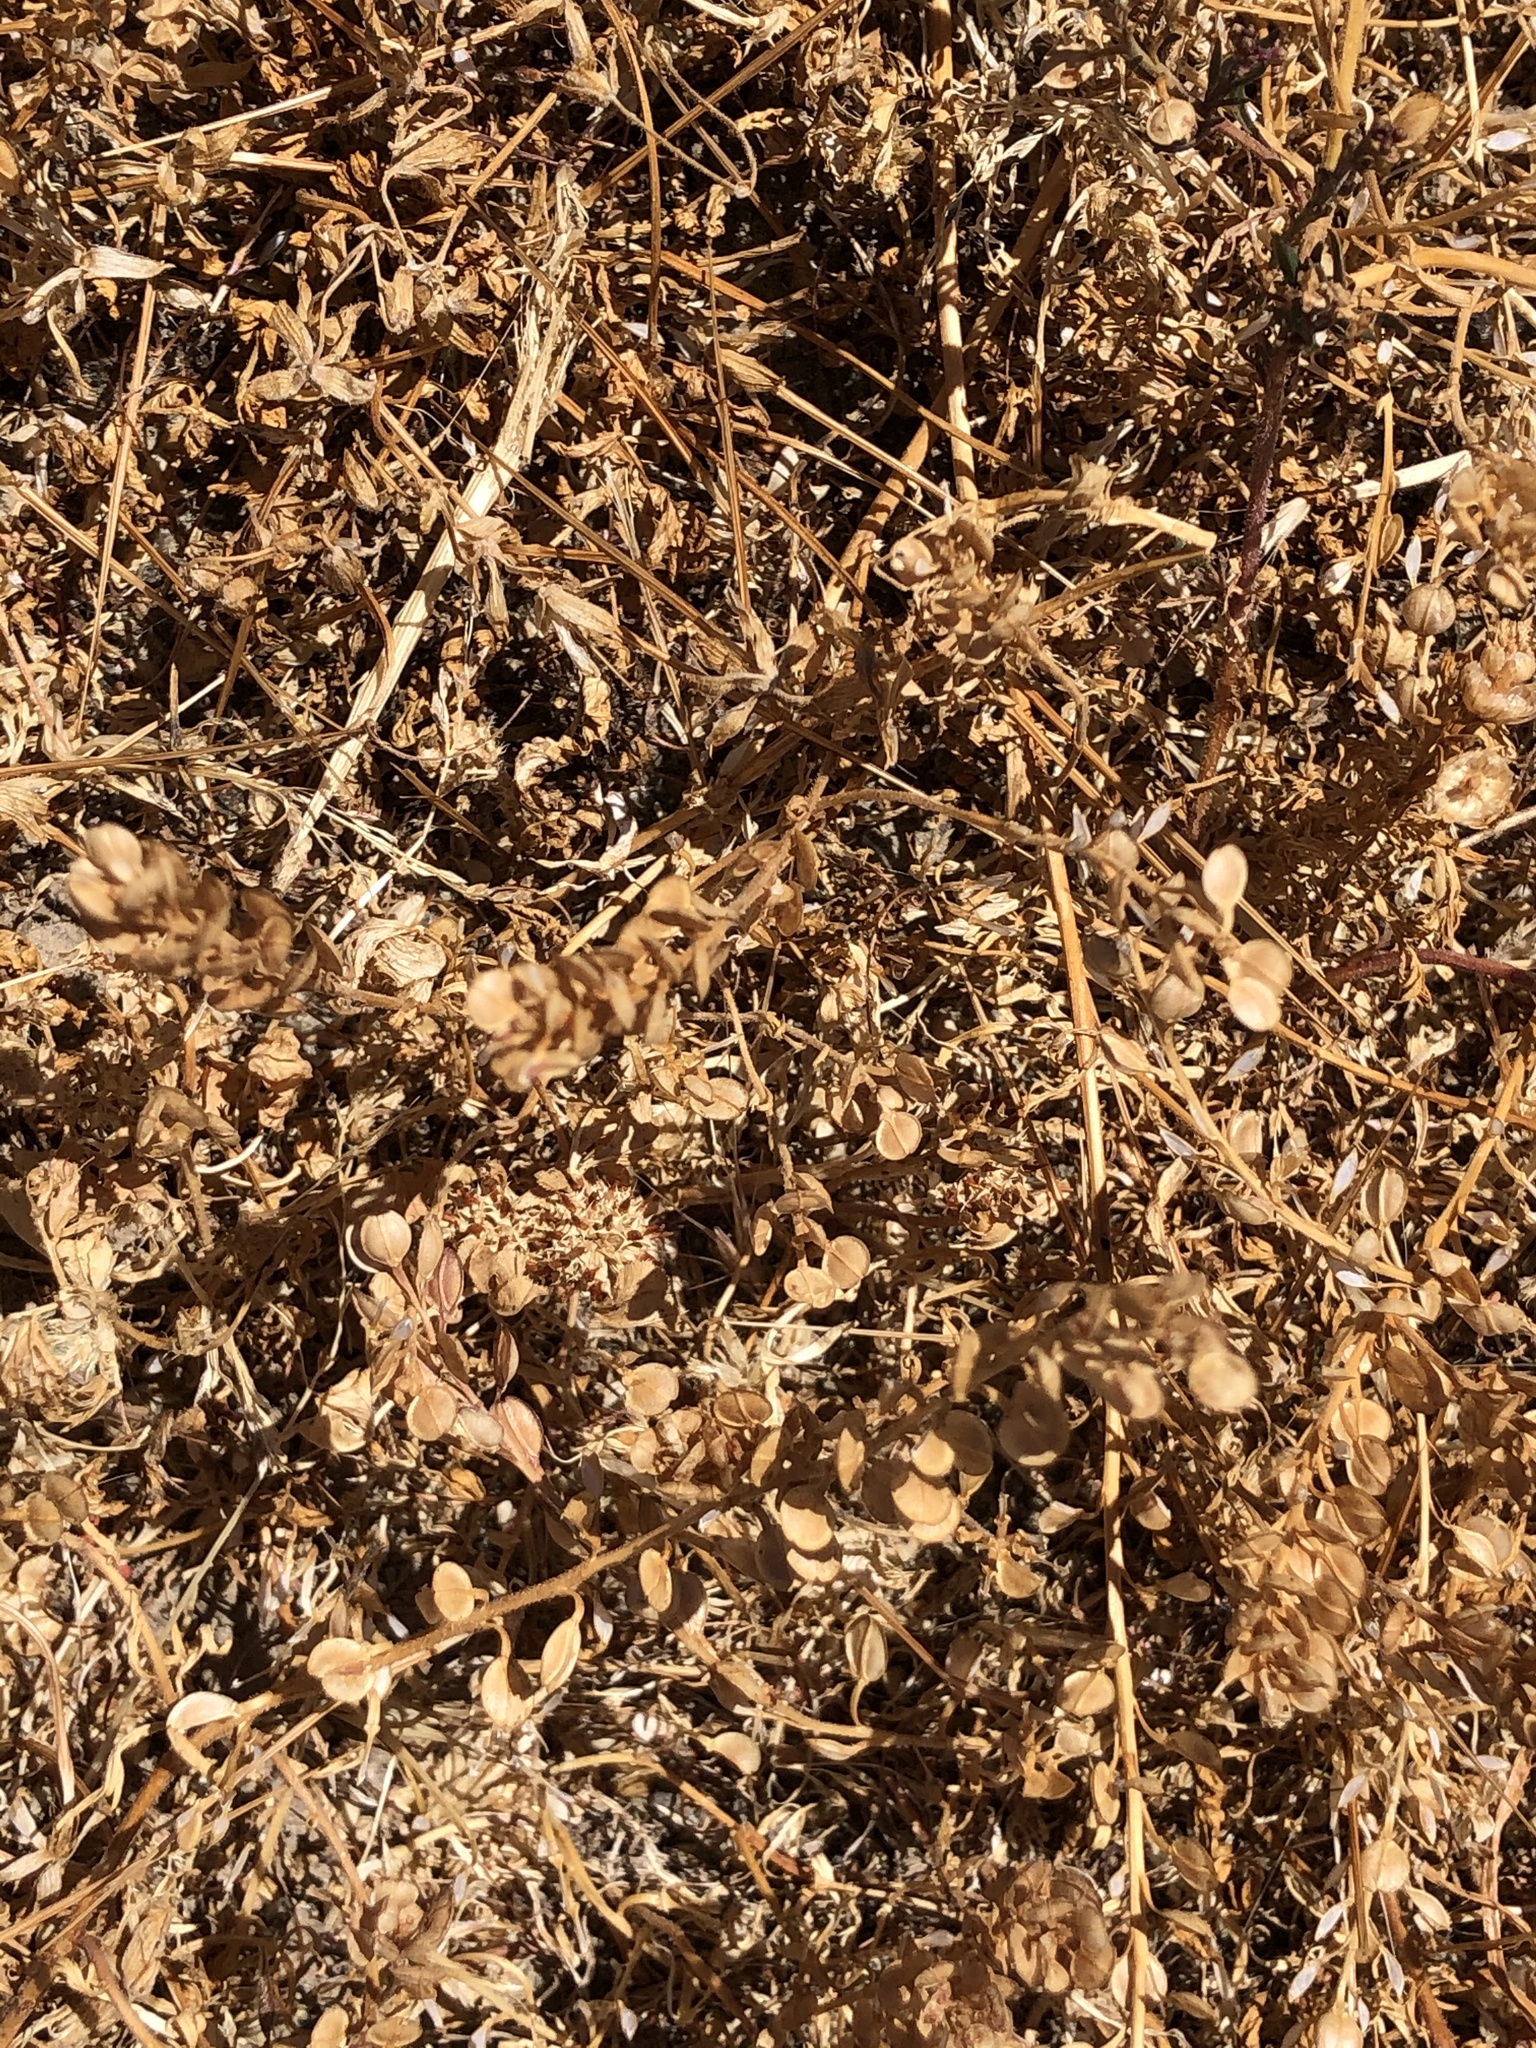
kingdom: Plantae
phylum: Tracheophyta
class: Magnoliopsida
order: Brassicales
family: Brassicaceae
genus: Lepidium
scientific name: Lepidium nitidum
